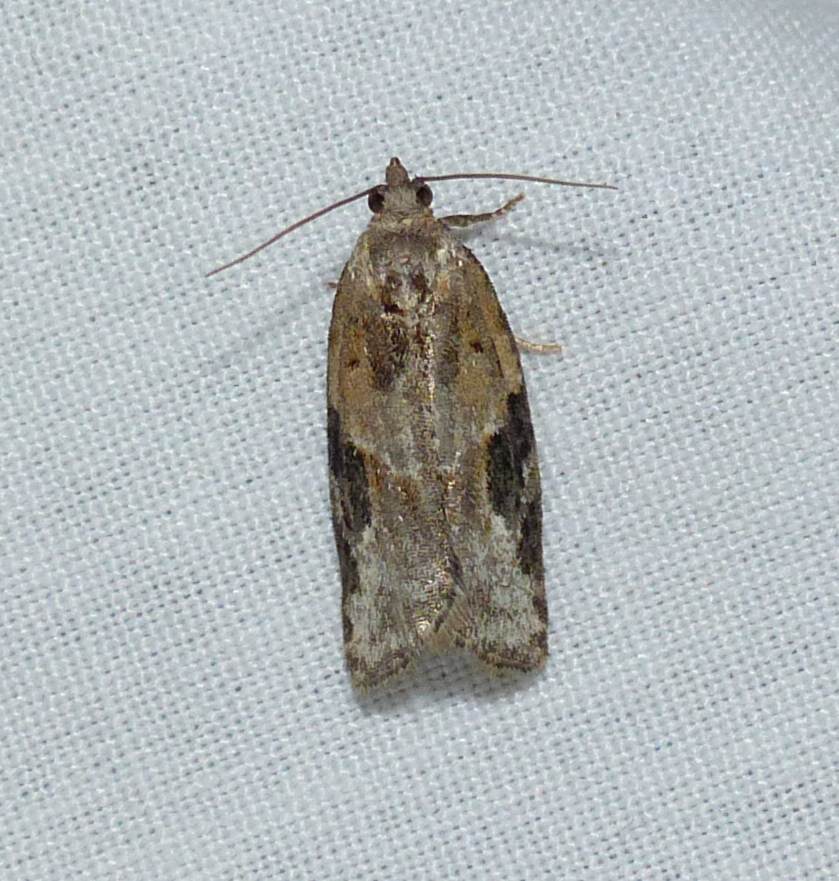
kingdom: Animalia
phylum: Arthropoda
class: Insecta
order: Lepidoptera
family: Tortricidae
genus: Argyrotaenia
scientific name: Argyrotaenia mariana
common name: Gray-banded leafroller moth
